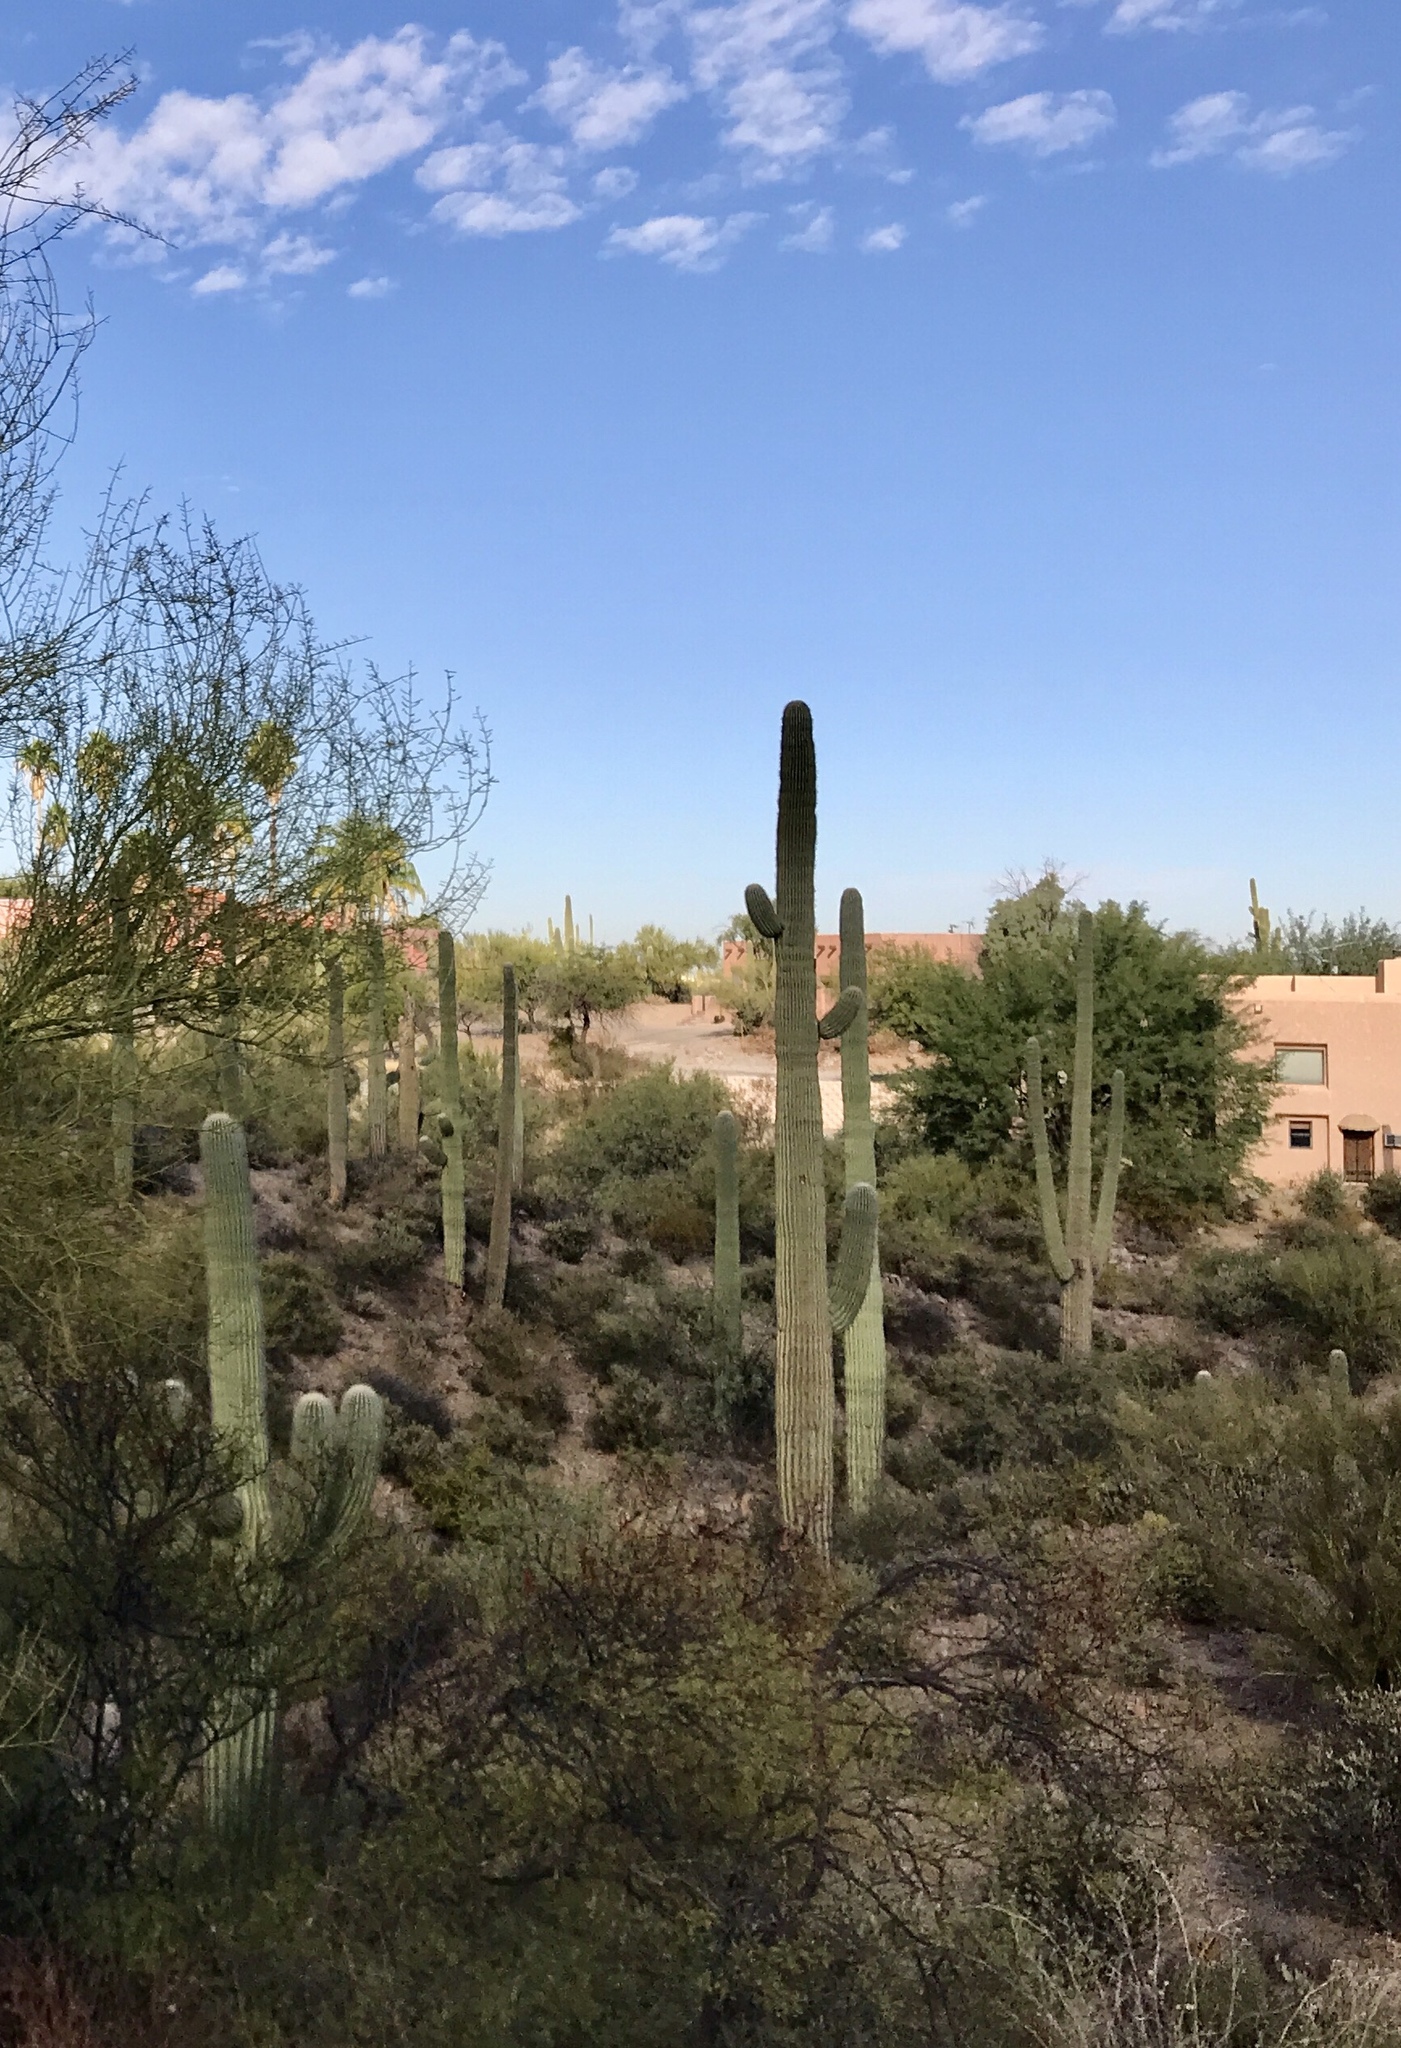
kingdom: Plantae
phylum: Tracheophyta
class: Magnoliopsida
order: Caryophyllales
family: Cactaceae
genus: Carnegiea
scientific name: Carnegiea gigantea
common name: Saguaro
